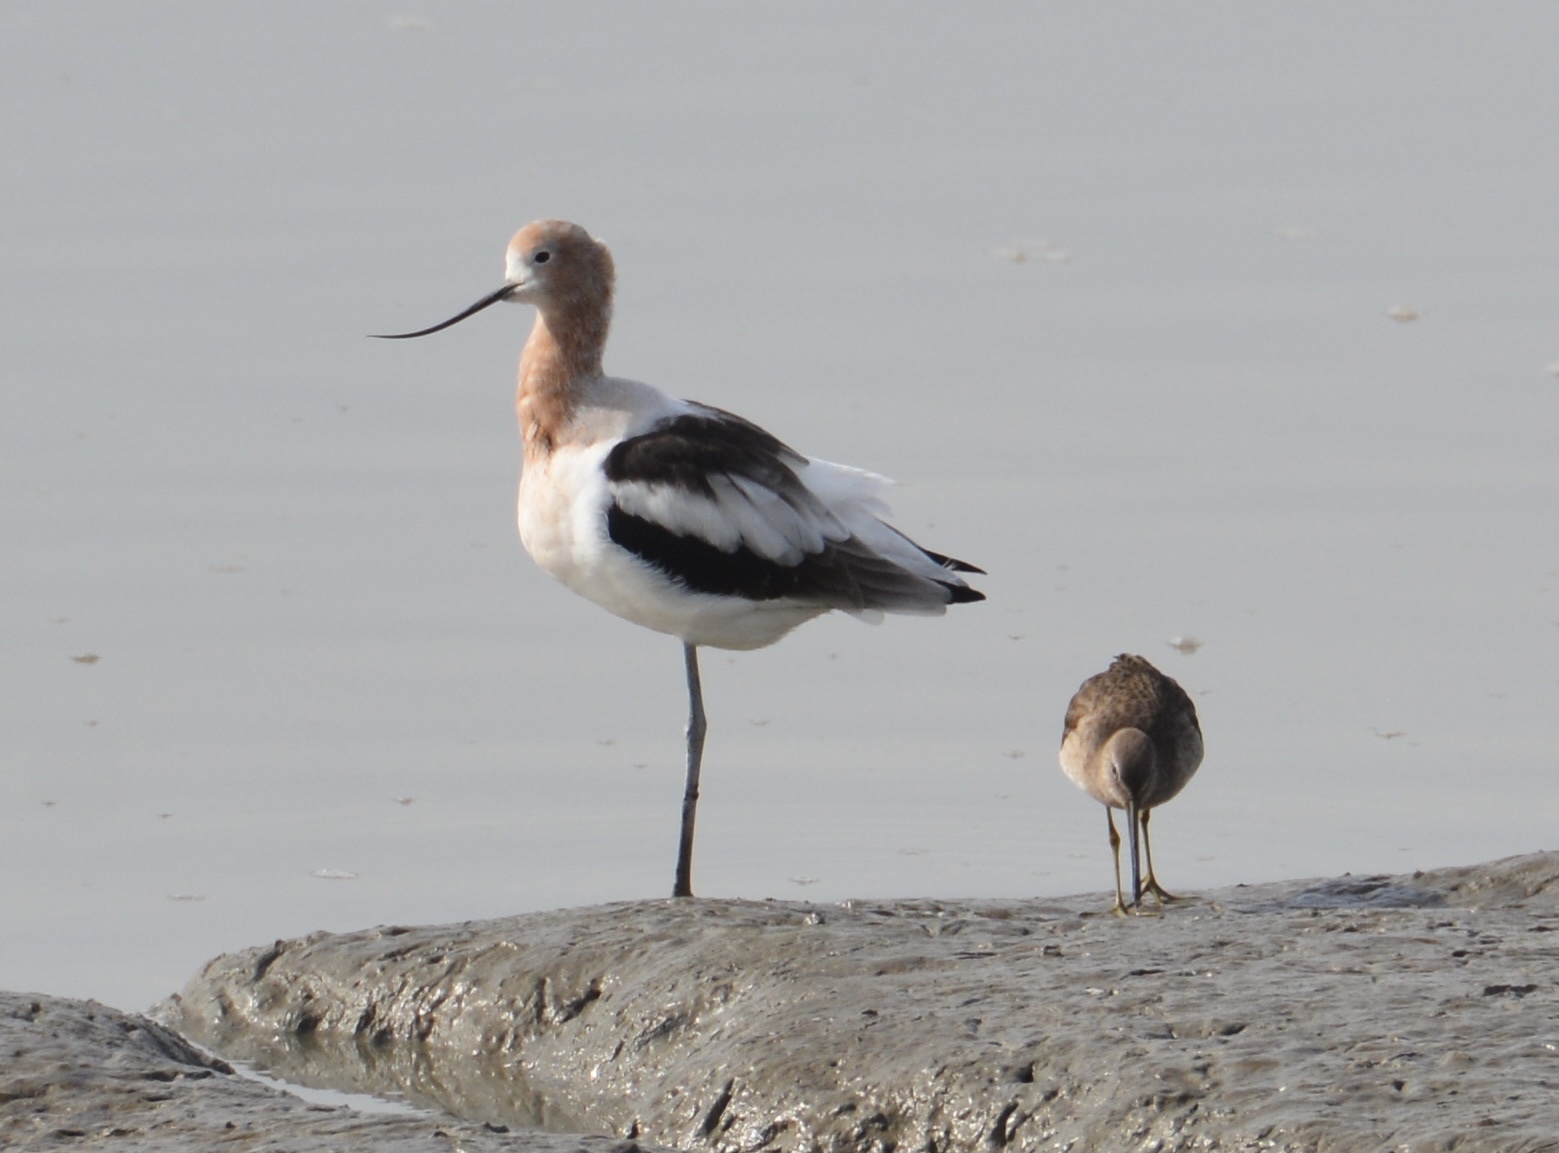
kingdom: Animalia
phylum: Chordata
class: Aves
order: Charadriiformes
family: Recurvirostridae
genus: Recurvirostra
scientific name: Recurvirostra americana
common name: American avocet
